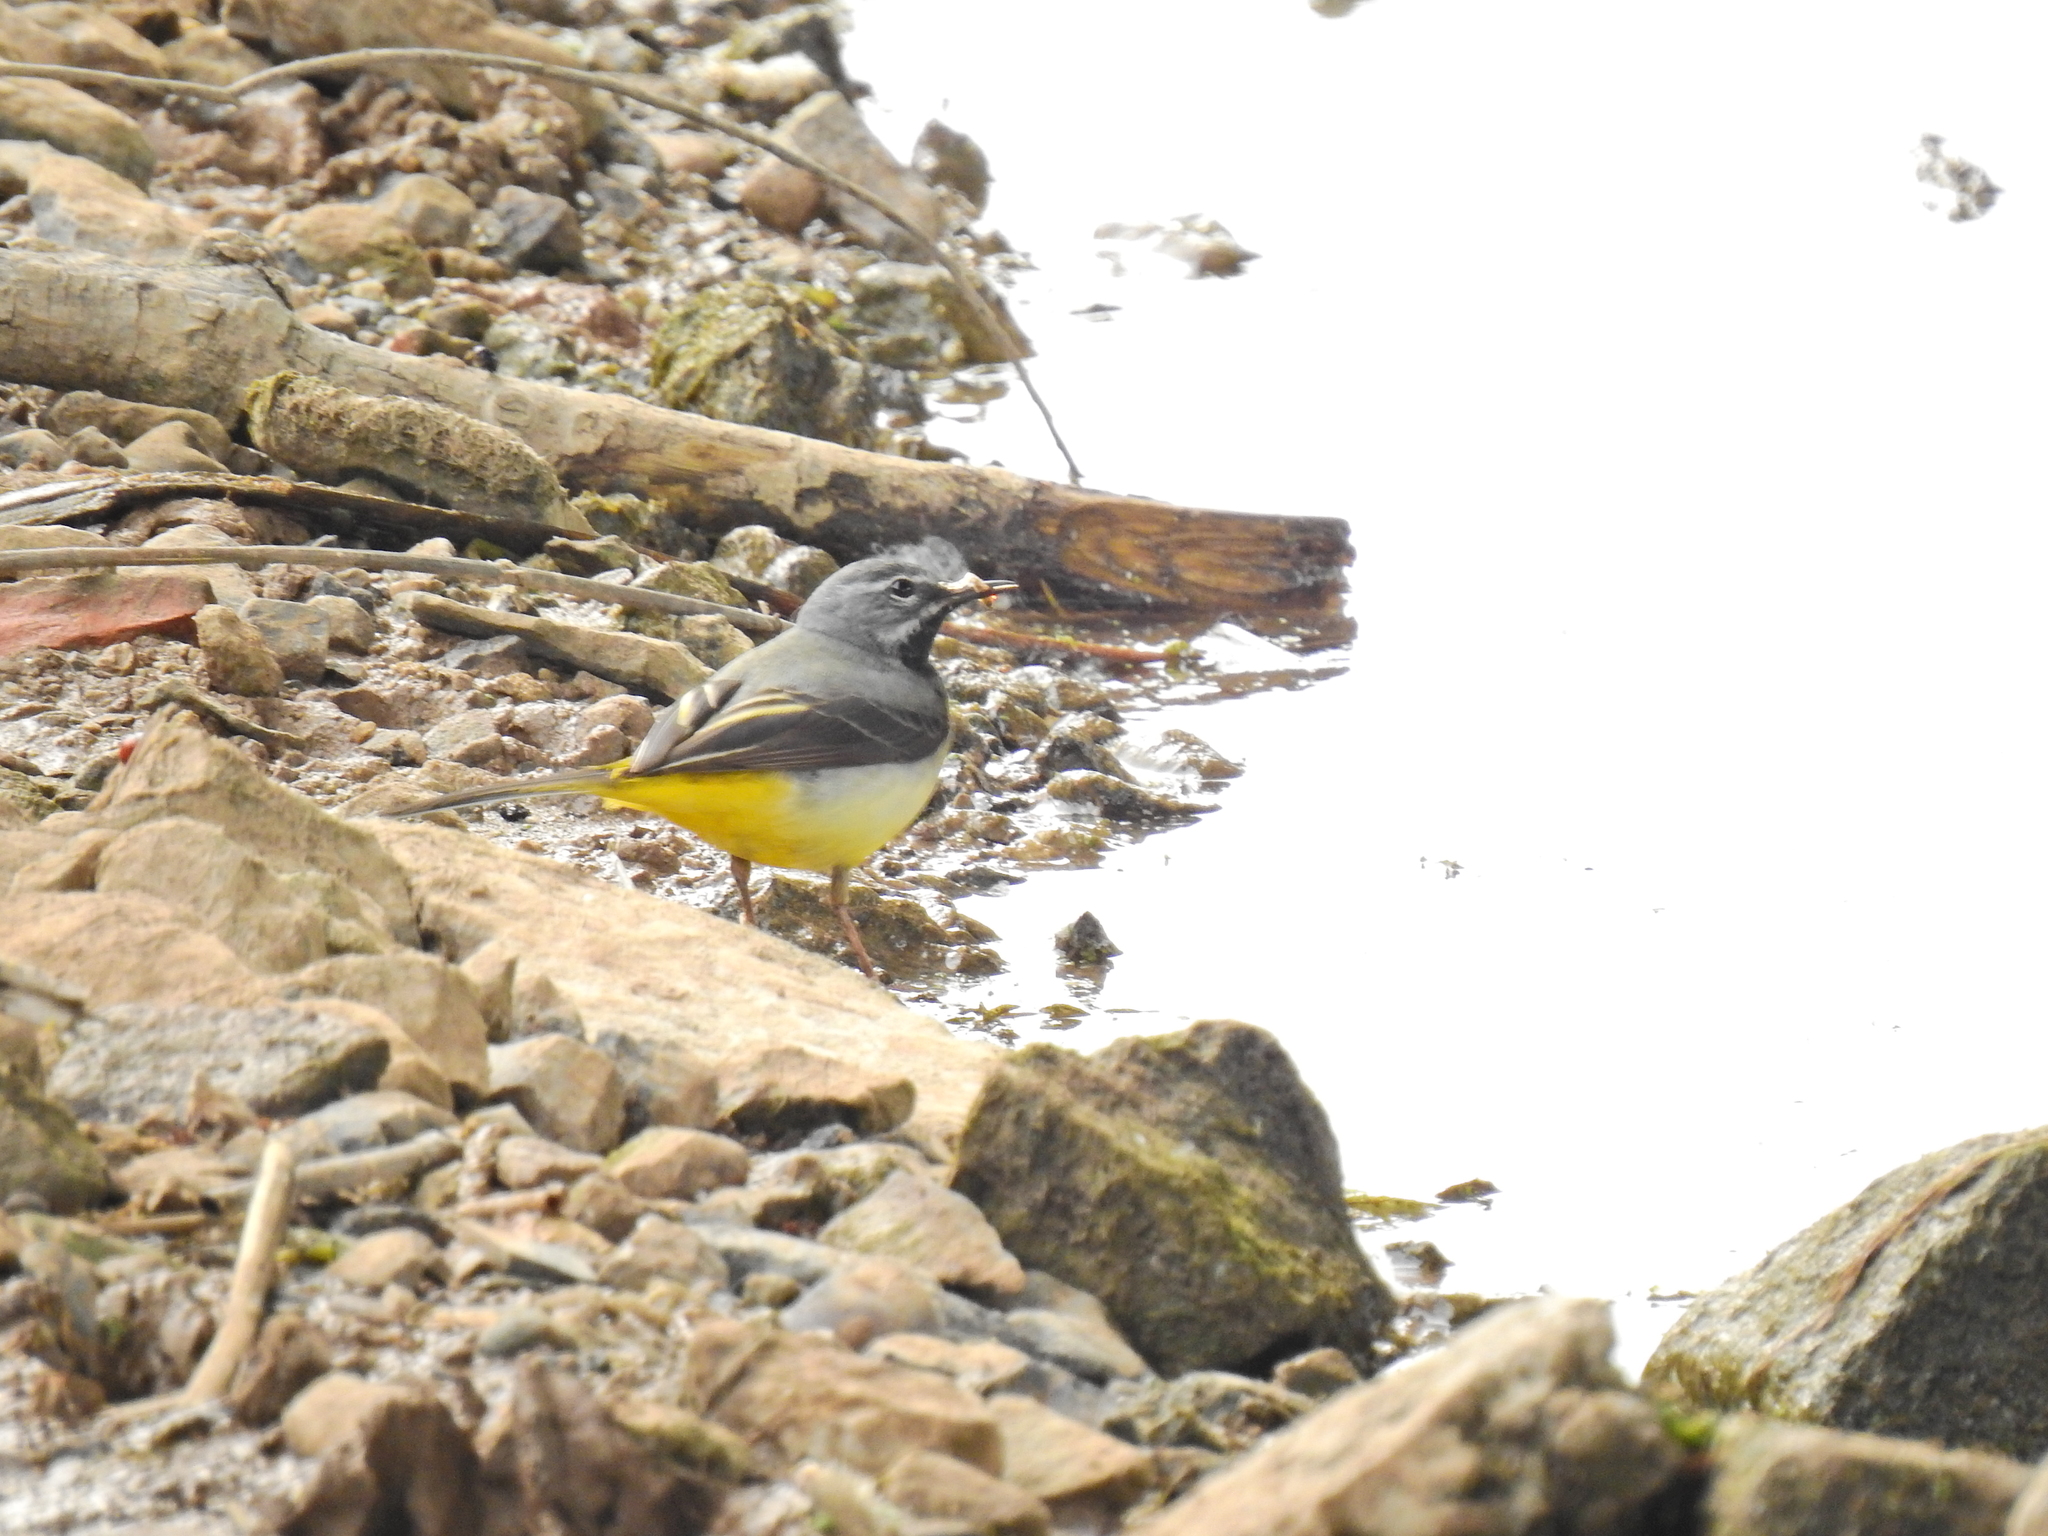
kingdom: Animalia
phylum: Chordata
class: Aves
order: Passeriformes
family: Motacillidae
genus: Motacilla
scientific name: Motacilla cinerea
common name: Grey wagtail
